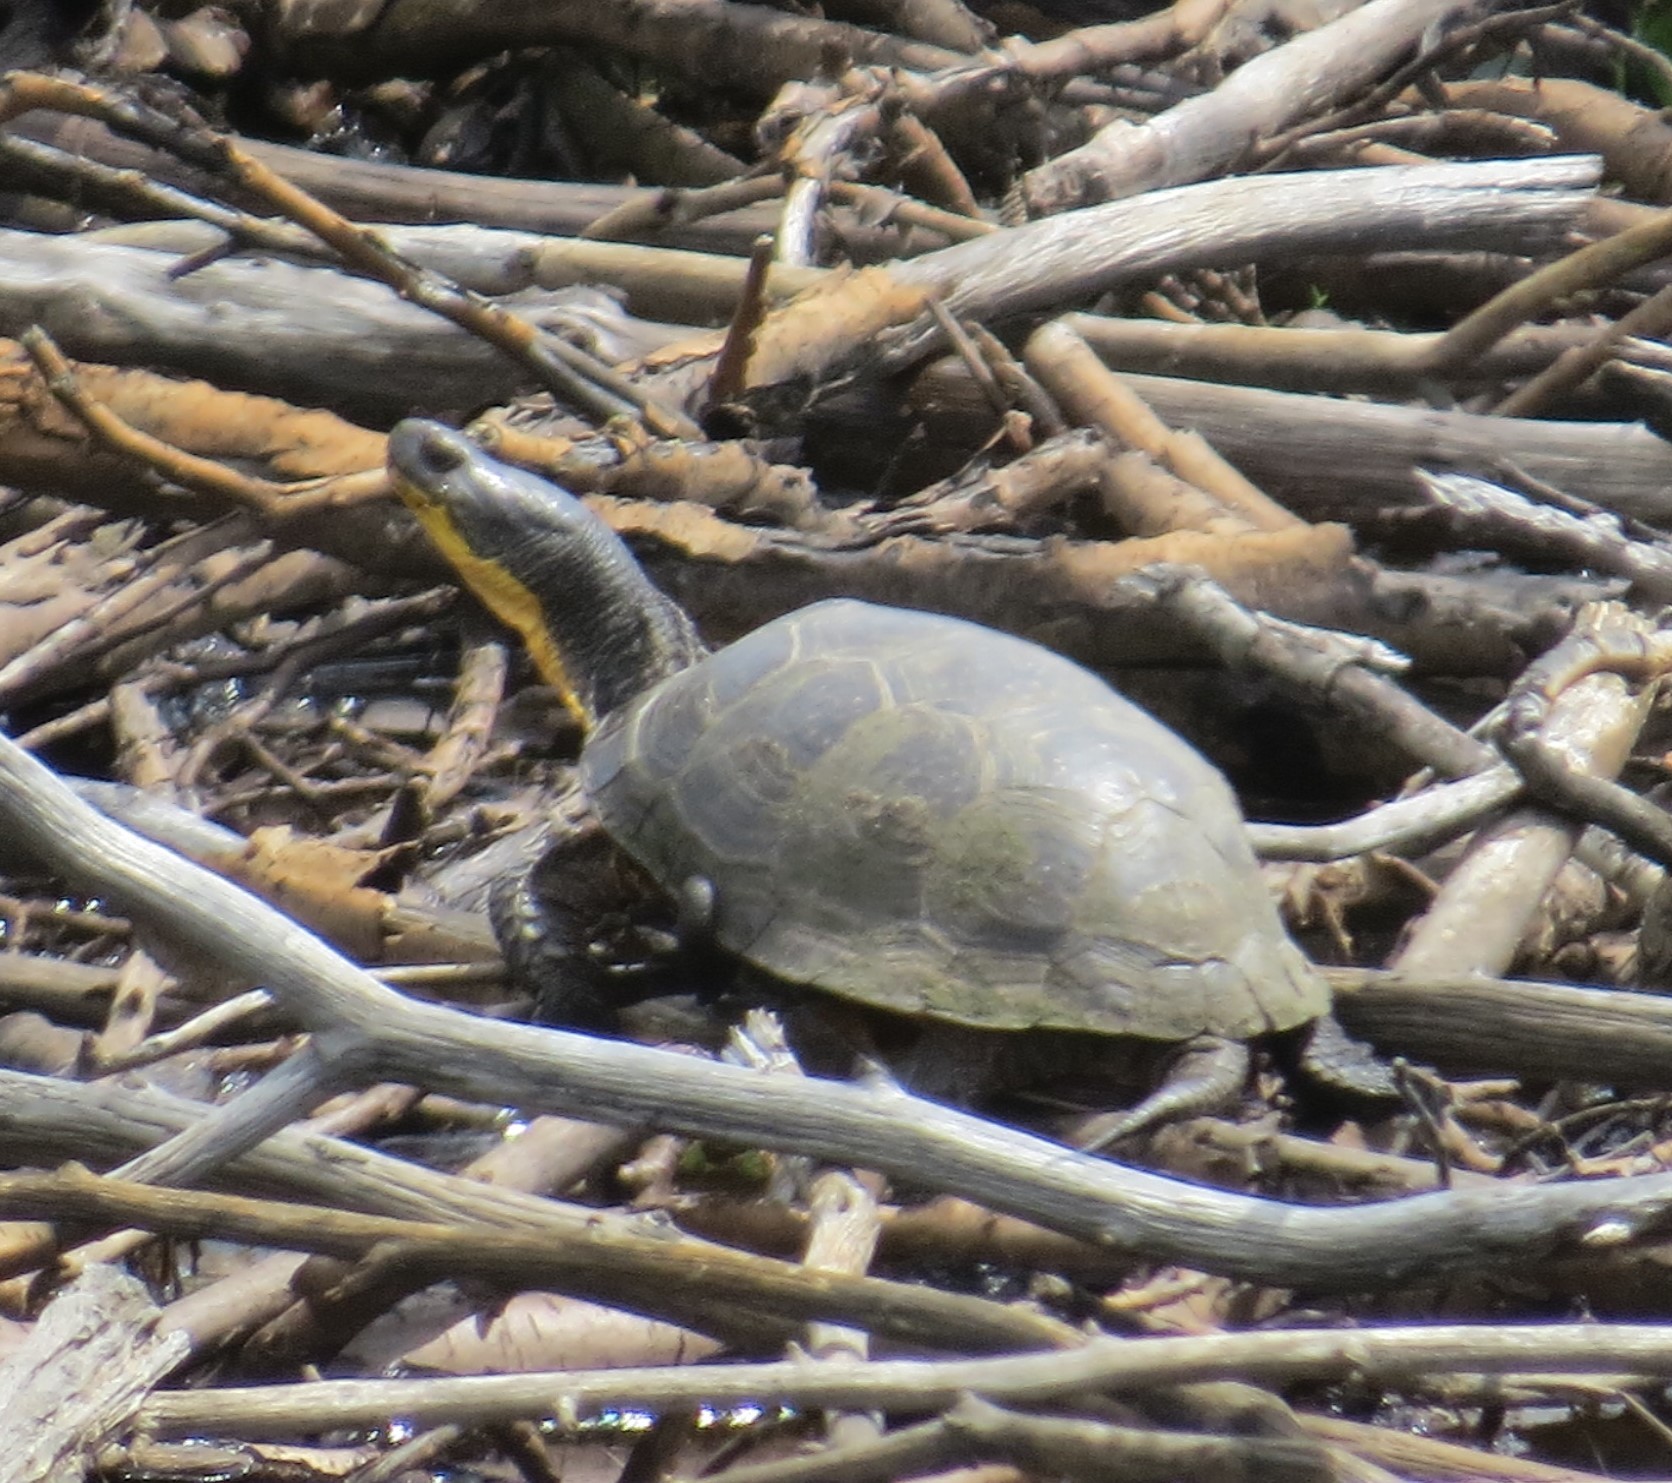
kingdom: Animalia
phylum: Chordata
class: Testudines
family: Emydidae
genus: Emys
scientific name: Emys blandingii
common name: Blanding's turtle
